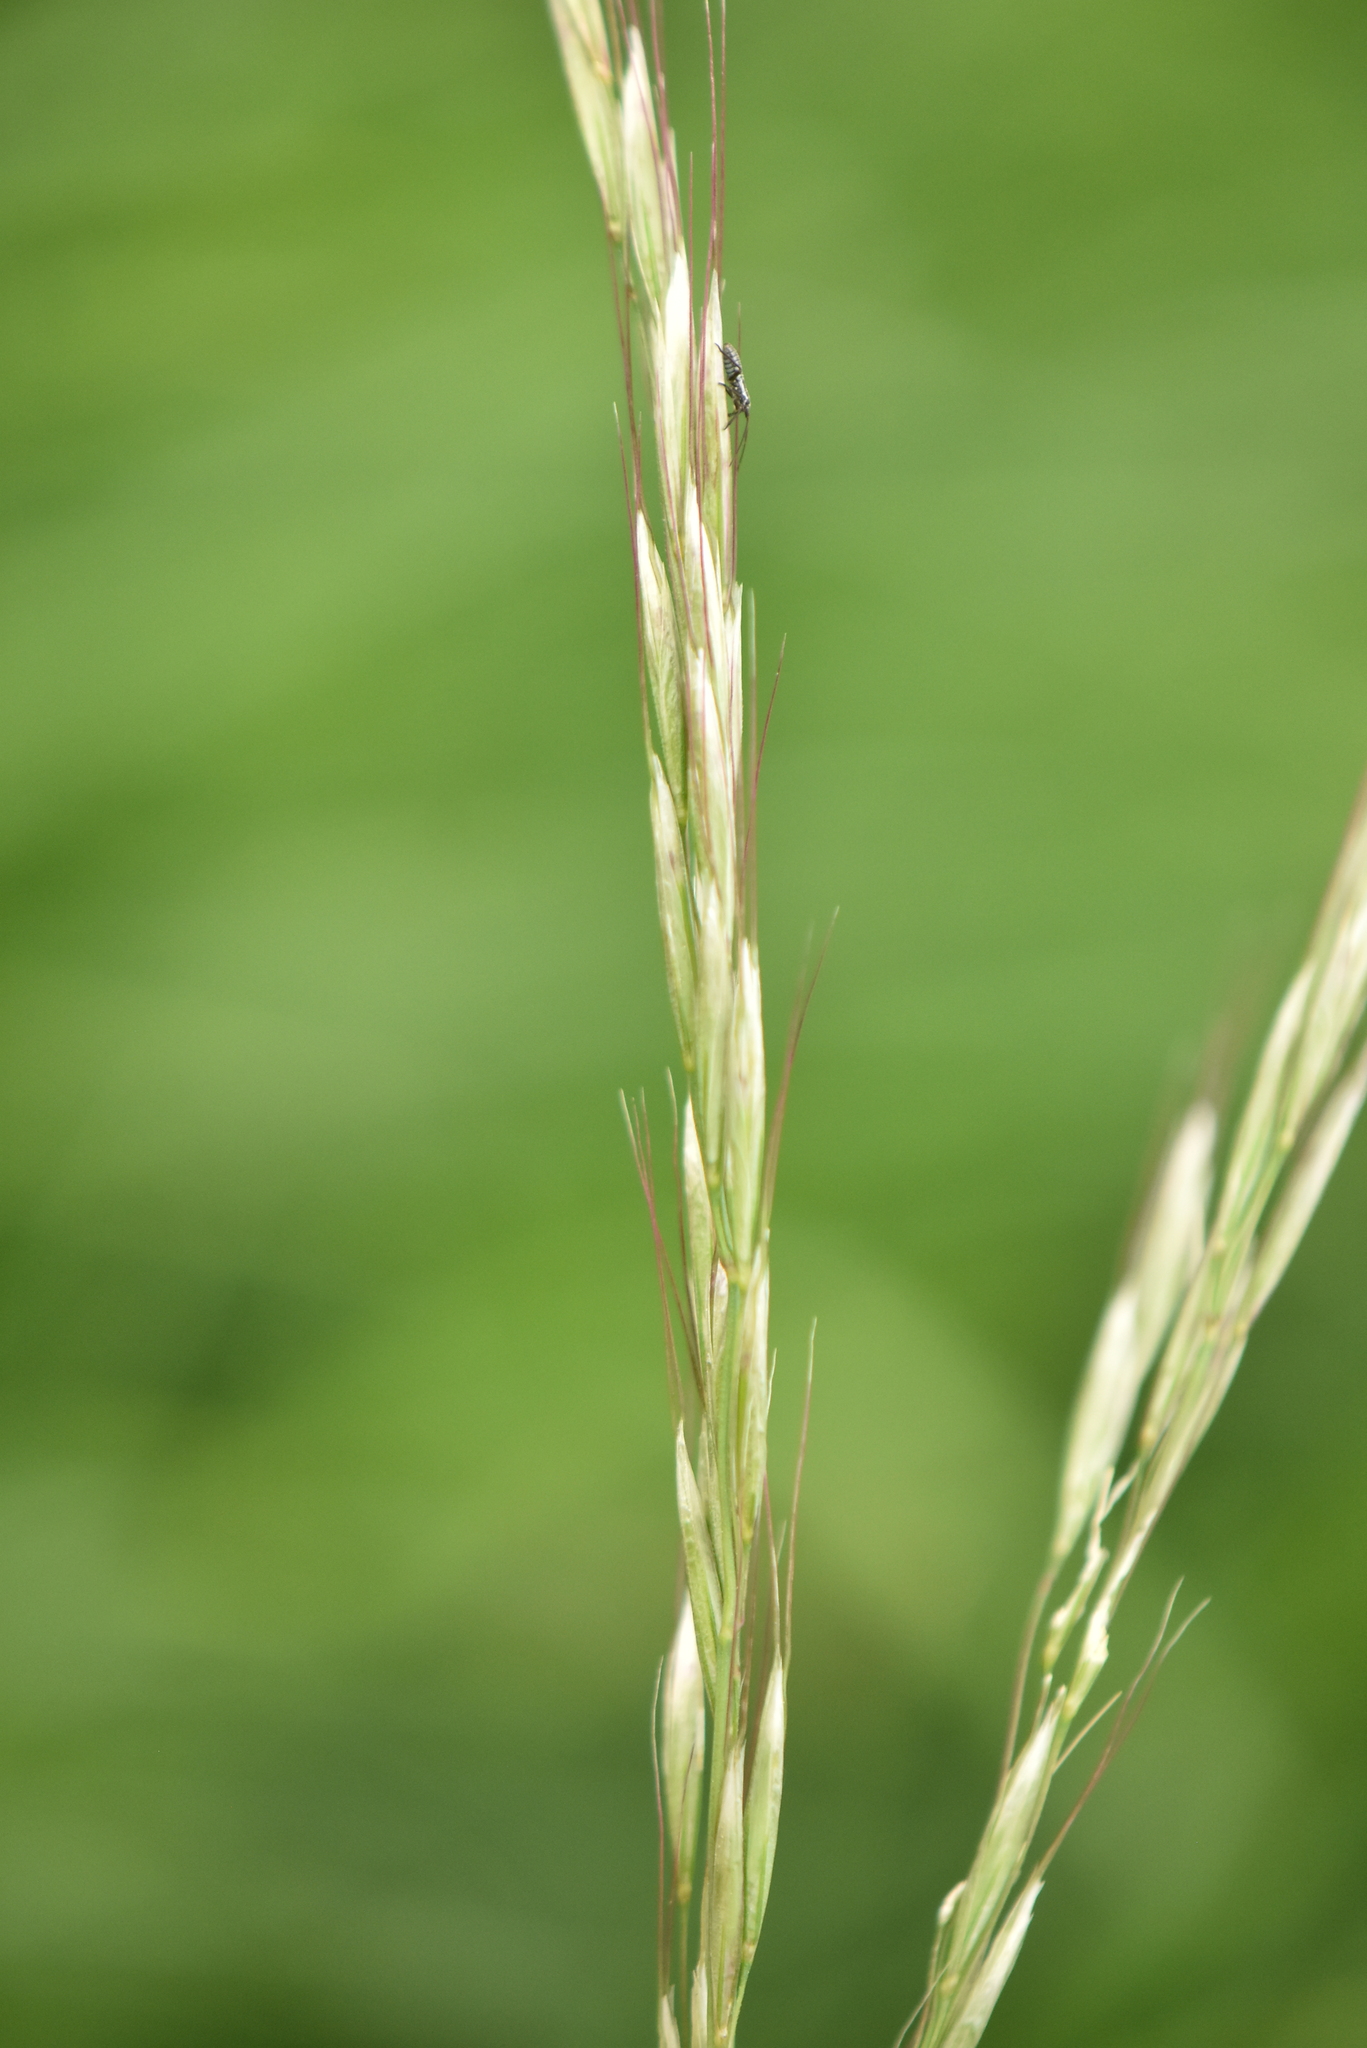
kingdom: Plantae
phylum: Tracheophyta
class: Liliopsida
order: Poales
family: Poaceae
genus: Arrhenatherum
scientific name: Arrhenatherum elatius
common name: Tall oatgrass
